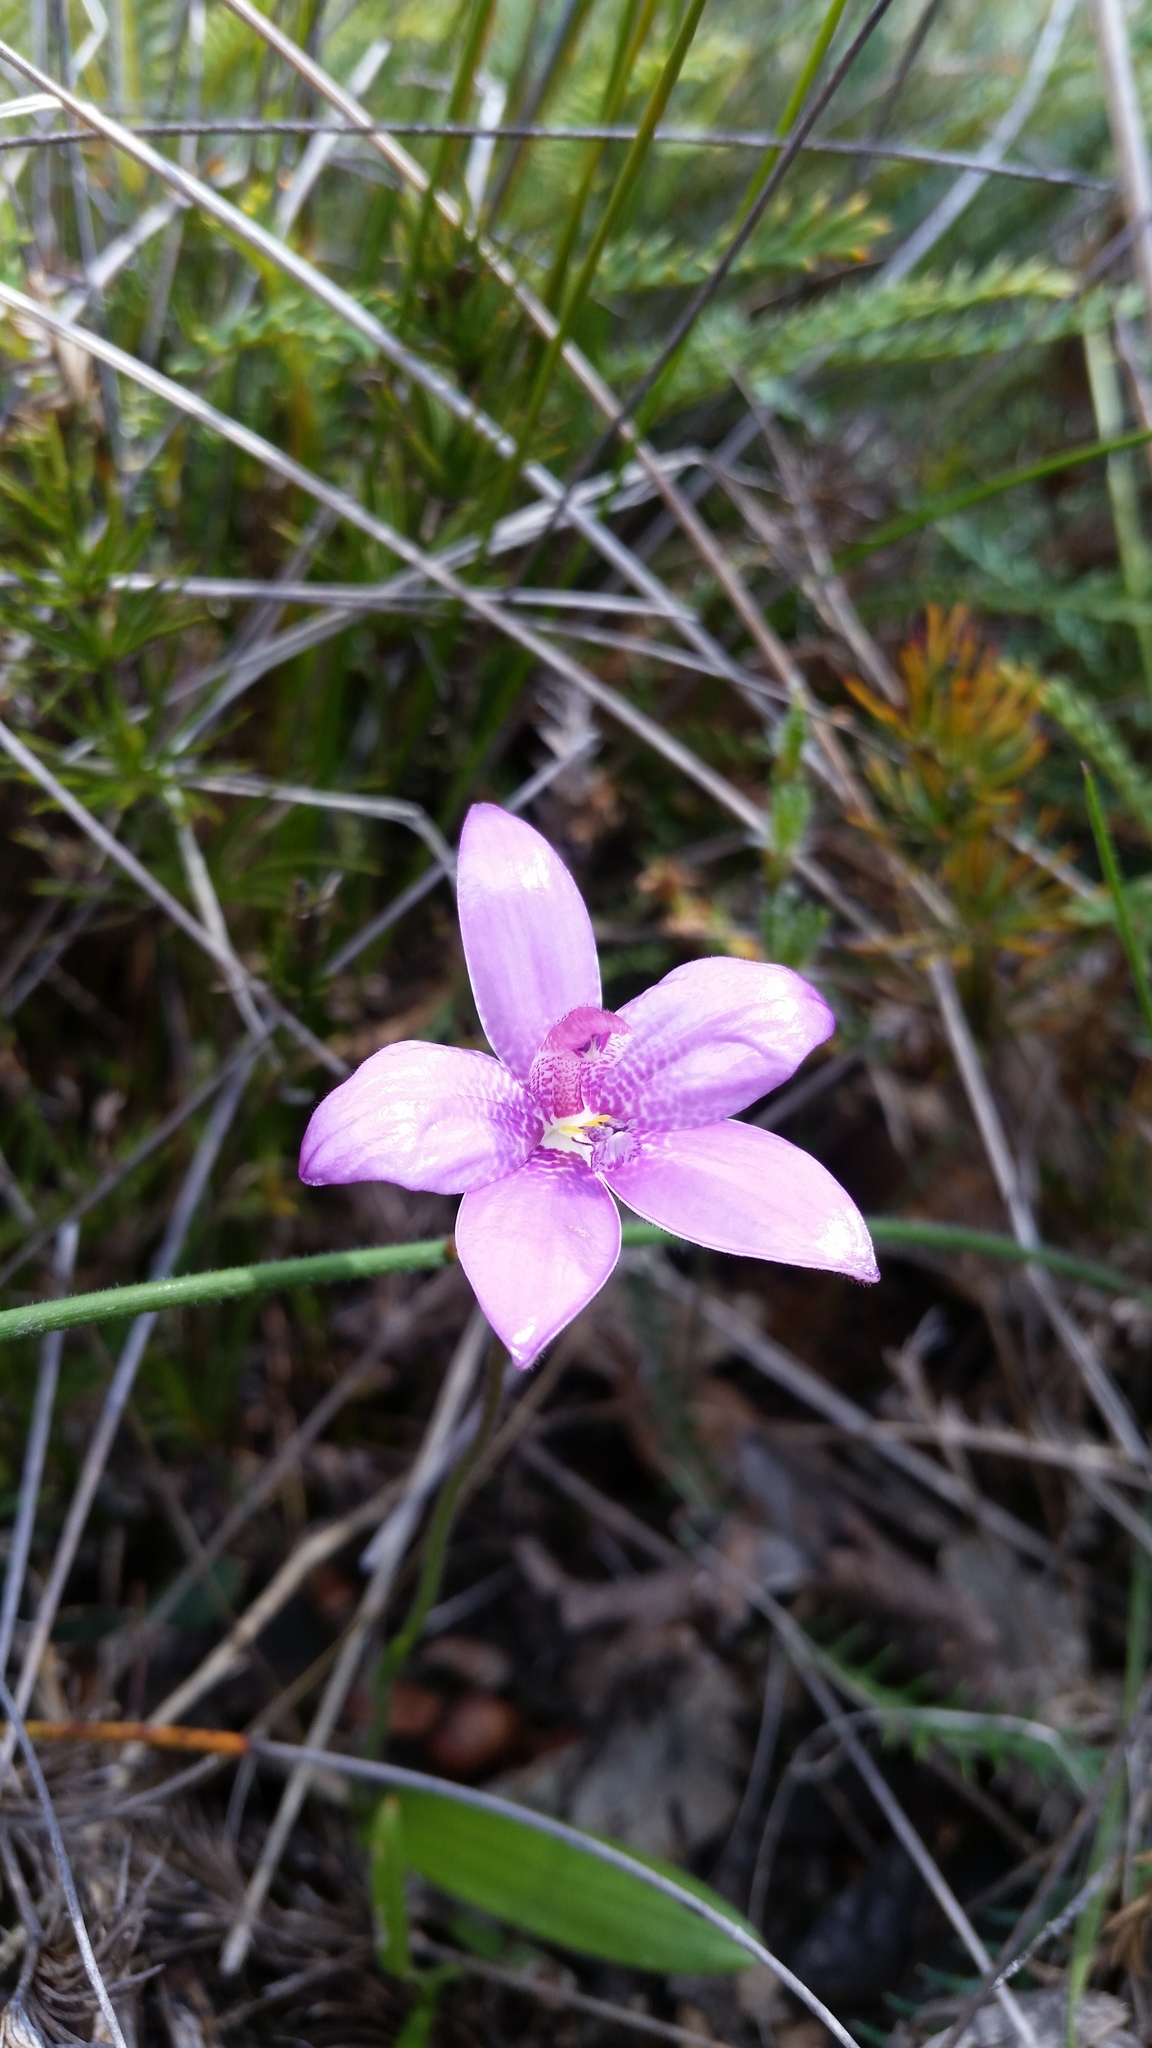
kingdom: Plantae
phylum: Tracheophyta
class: Liliopsida
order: Asparagales
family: Orchidaceae
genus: Caladenia
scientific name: Caladenia emarginata
